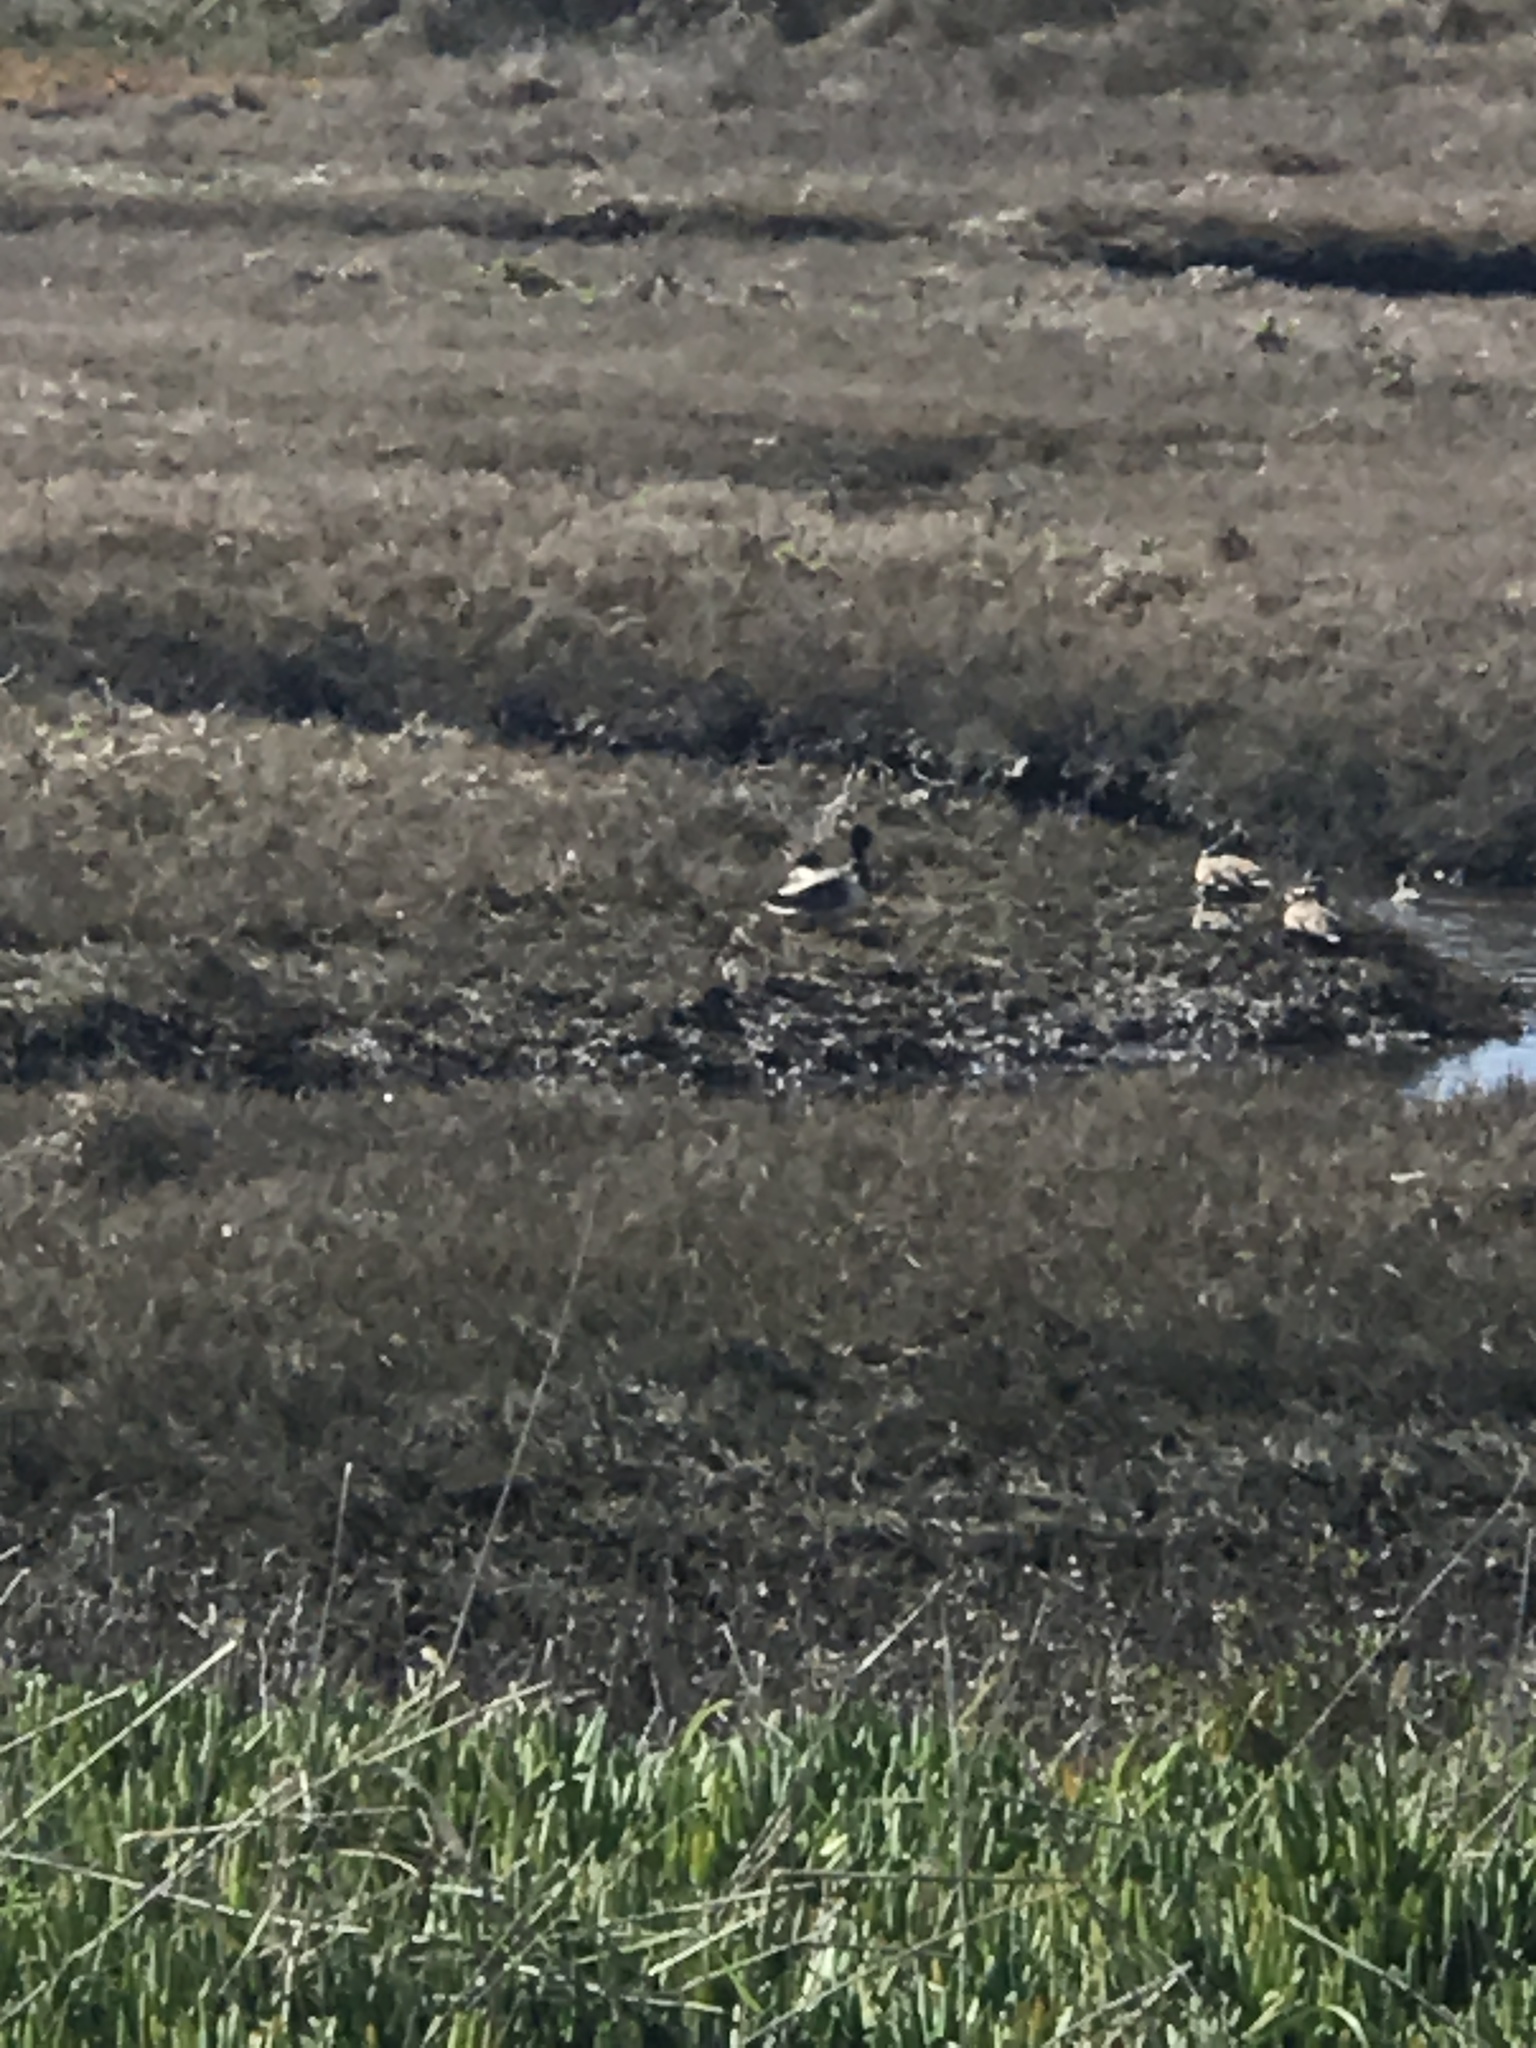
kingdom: Animalia
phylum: Chordata
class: Aves
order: Anseriformes
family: Anatidae
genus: Anas
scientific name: Anas platyrhynchos
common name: Mallard
